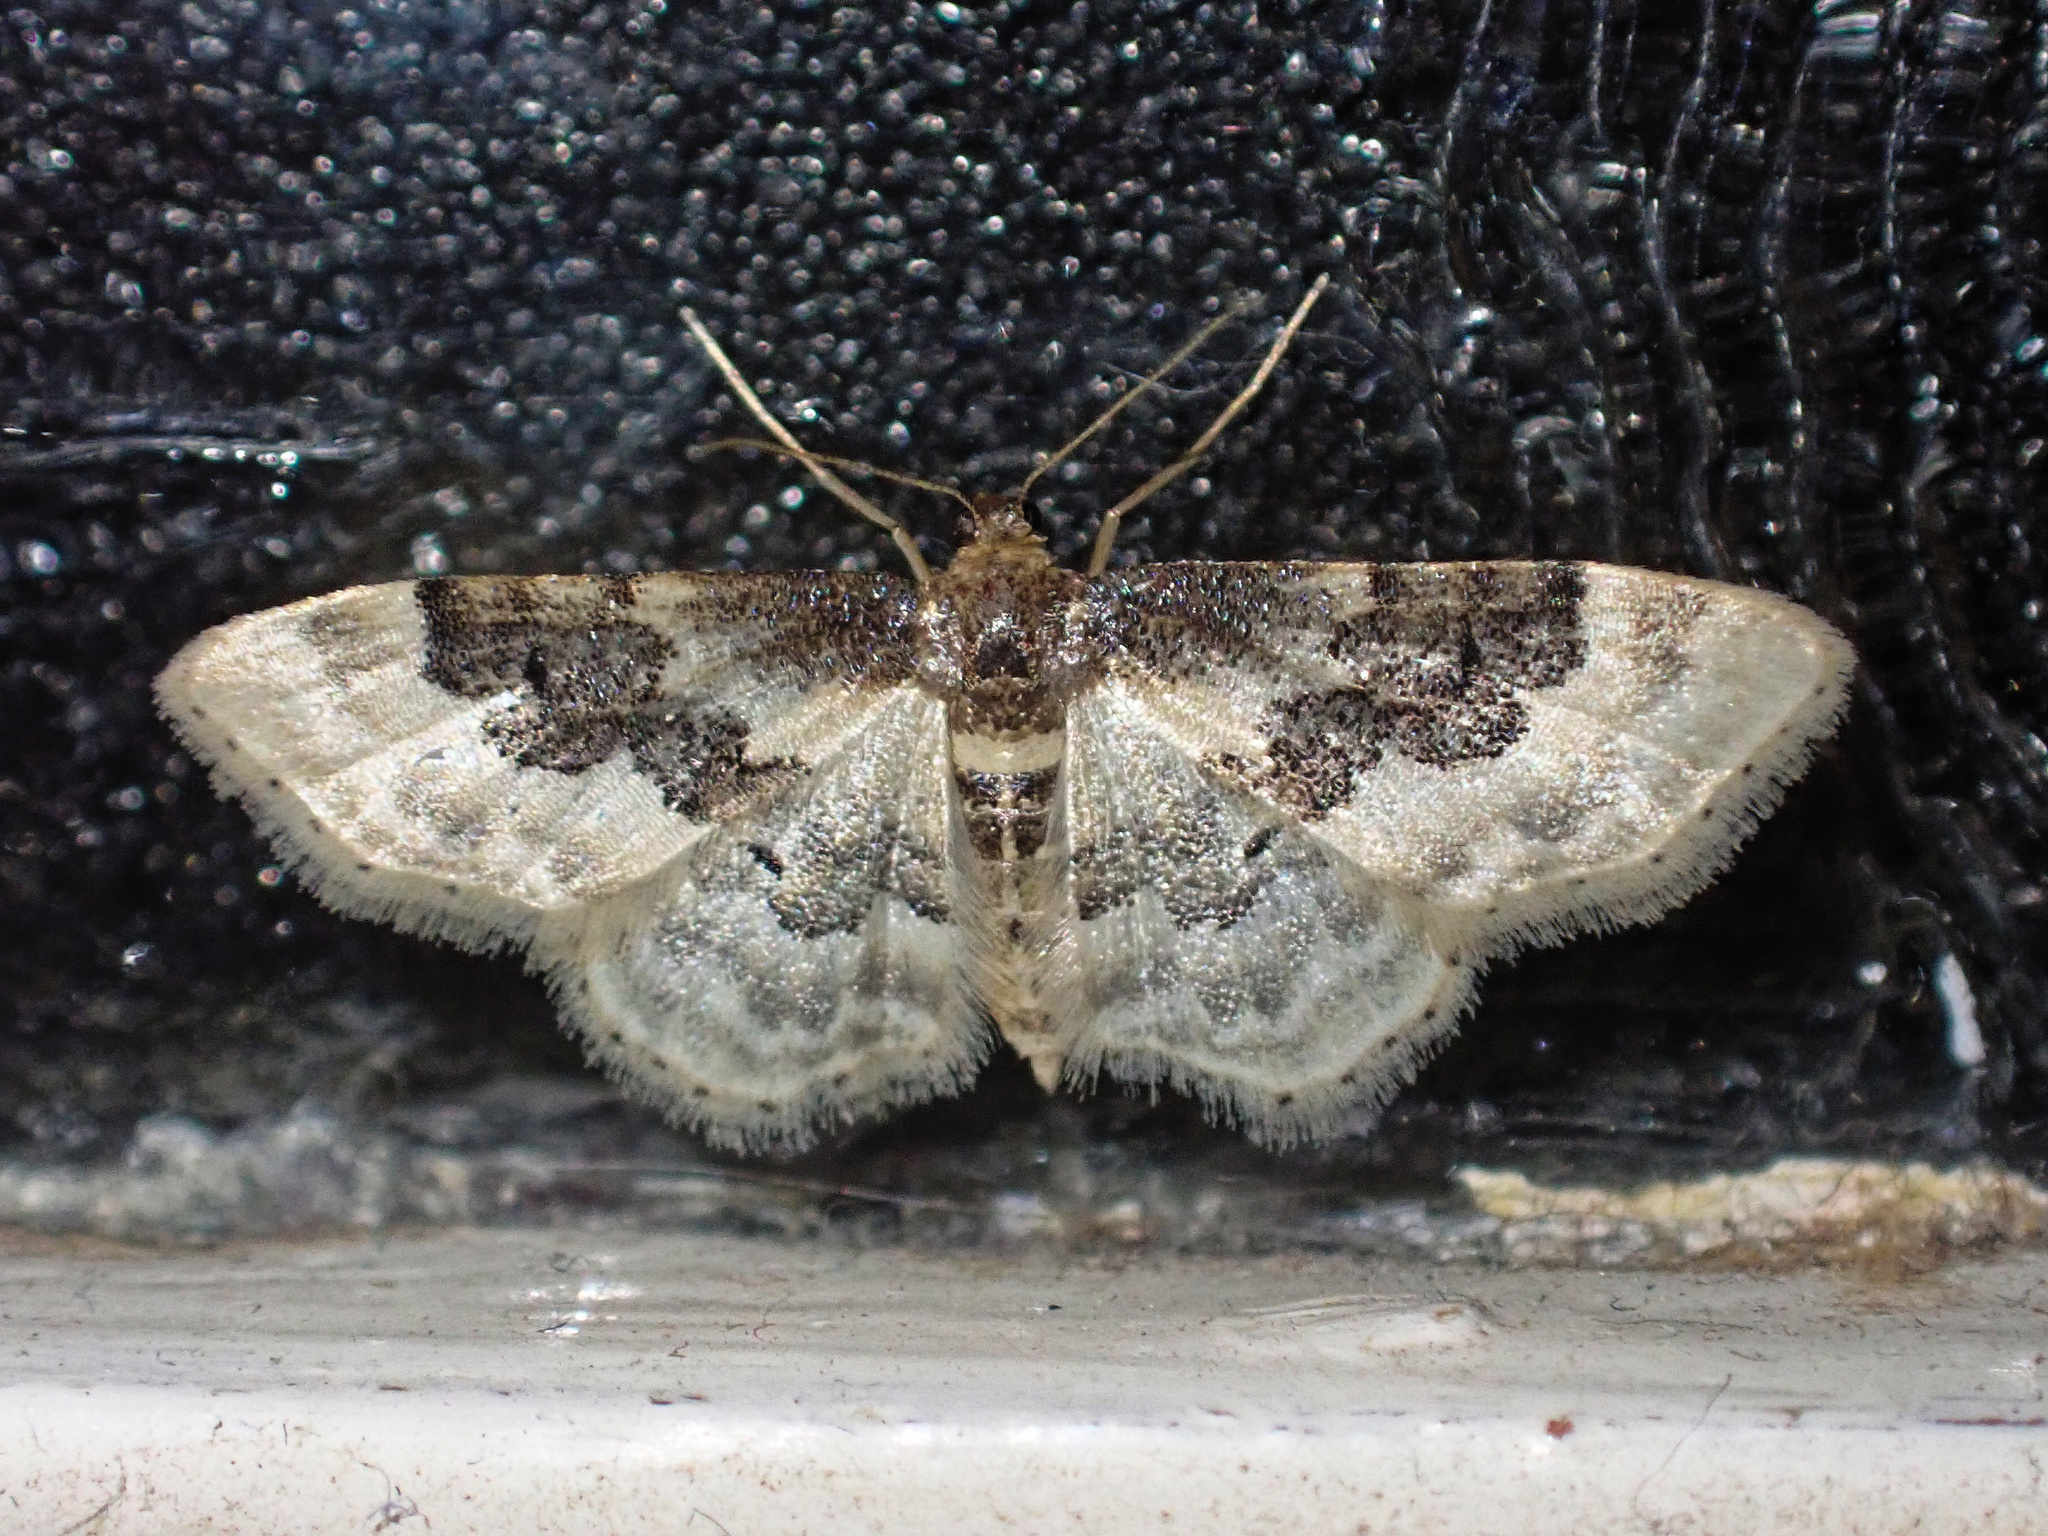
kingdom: Animalia
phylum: Arthropoda
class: Insecta
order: Lepidoptera
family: Geometridae
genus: Idaea
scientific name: Idaea rusticata
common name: Least carpet
